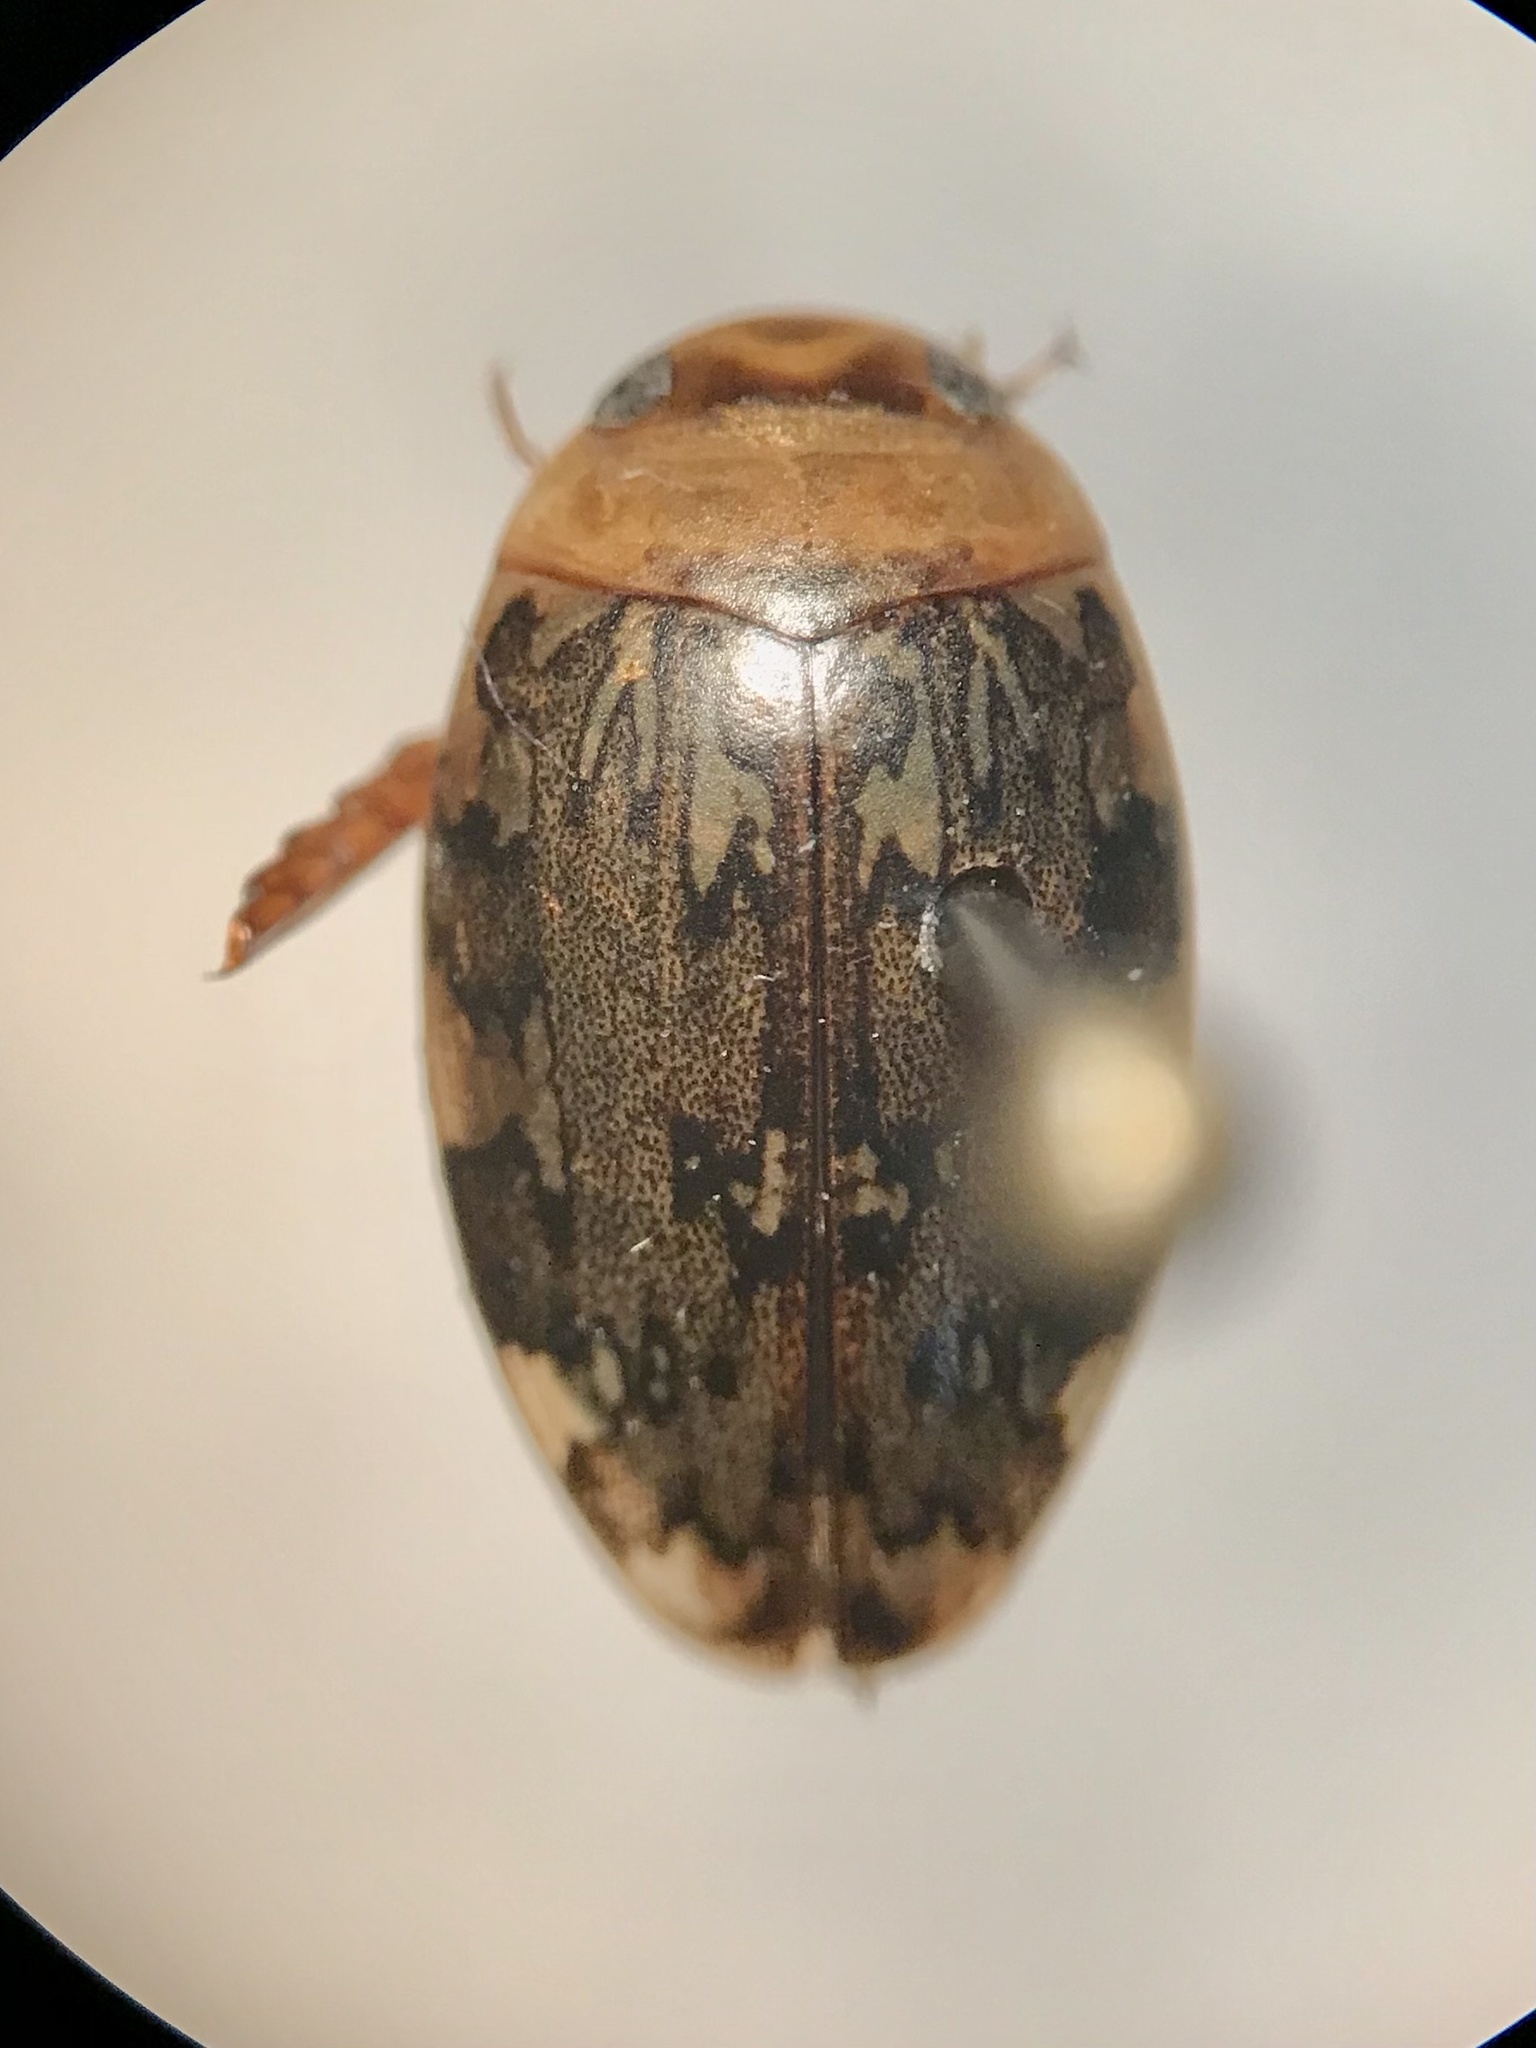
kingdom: Animalia
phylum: Arthropoda
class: Insecta
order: Coleoptera
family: Dytiscidae
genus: Laccophilus
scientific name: Laccophilus maculosus
